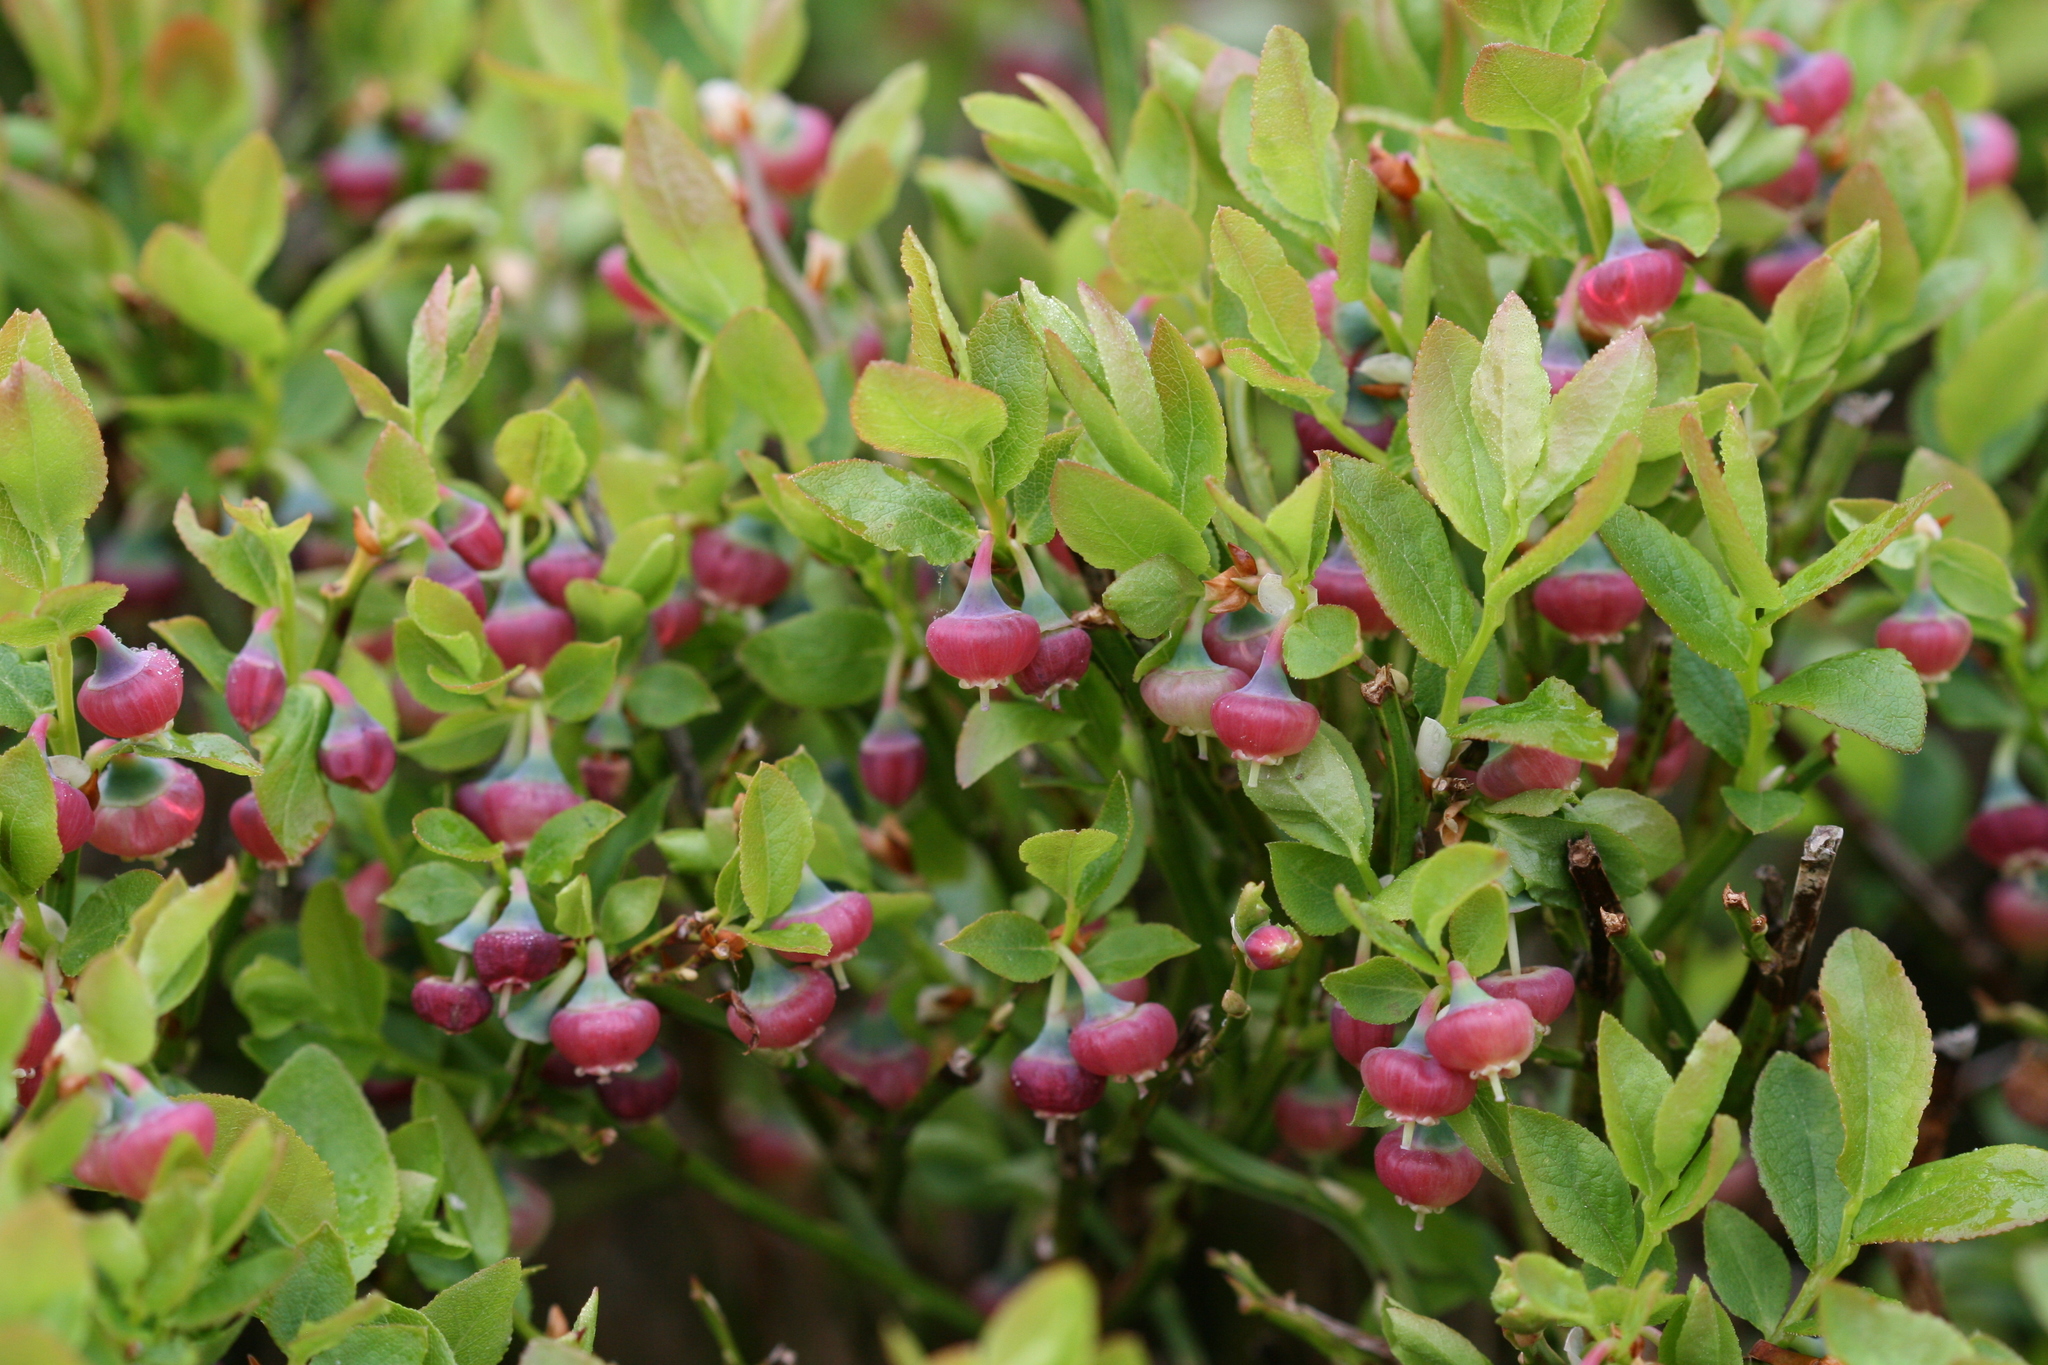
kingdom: Plantae
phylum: Tracheophyta
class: Magnoliopsida
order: Ericales
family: Ericaceae
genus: Vaccinium
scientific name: Vaccinium myrtillus
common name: Bilberry
